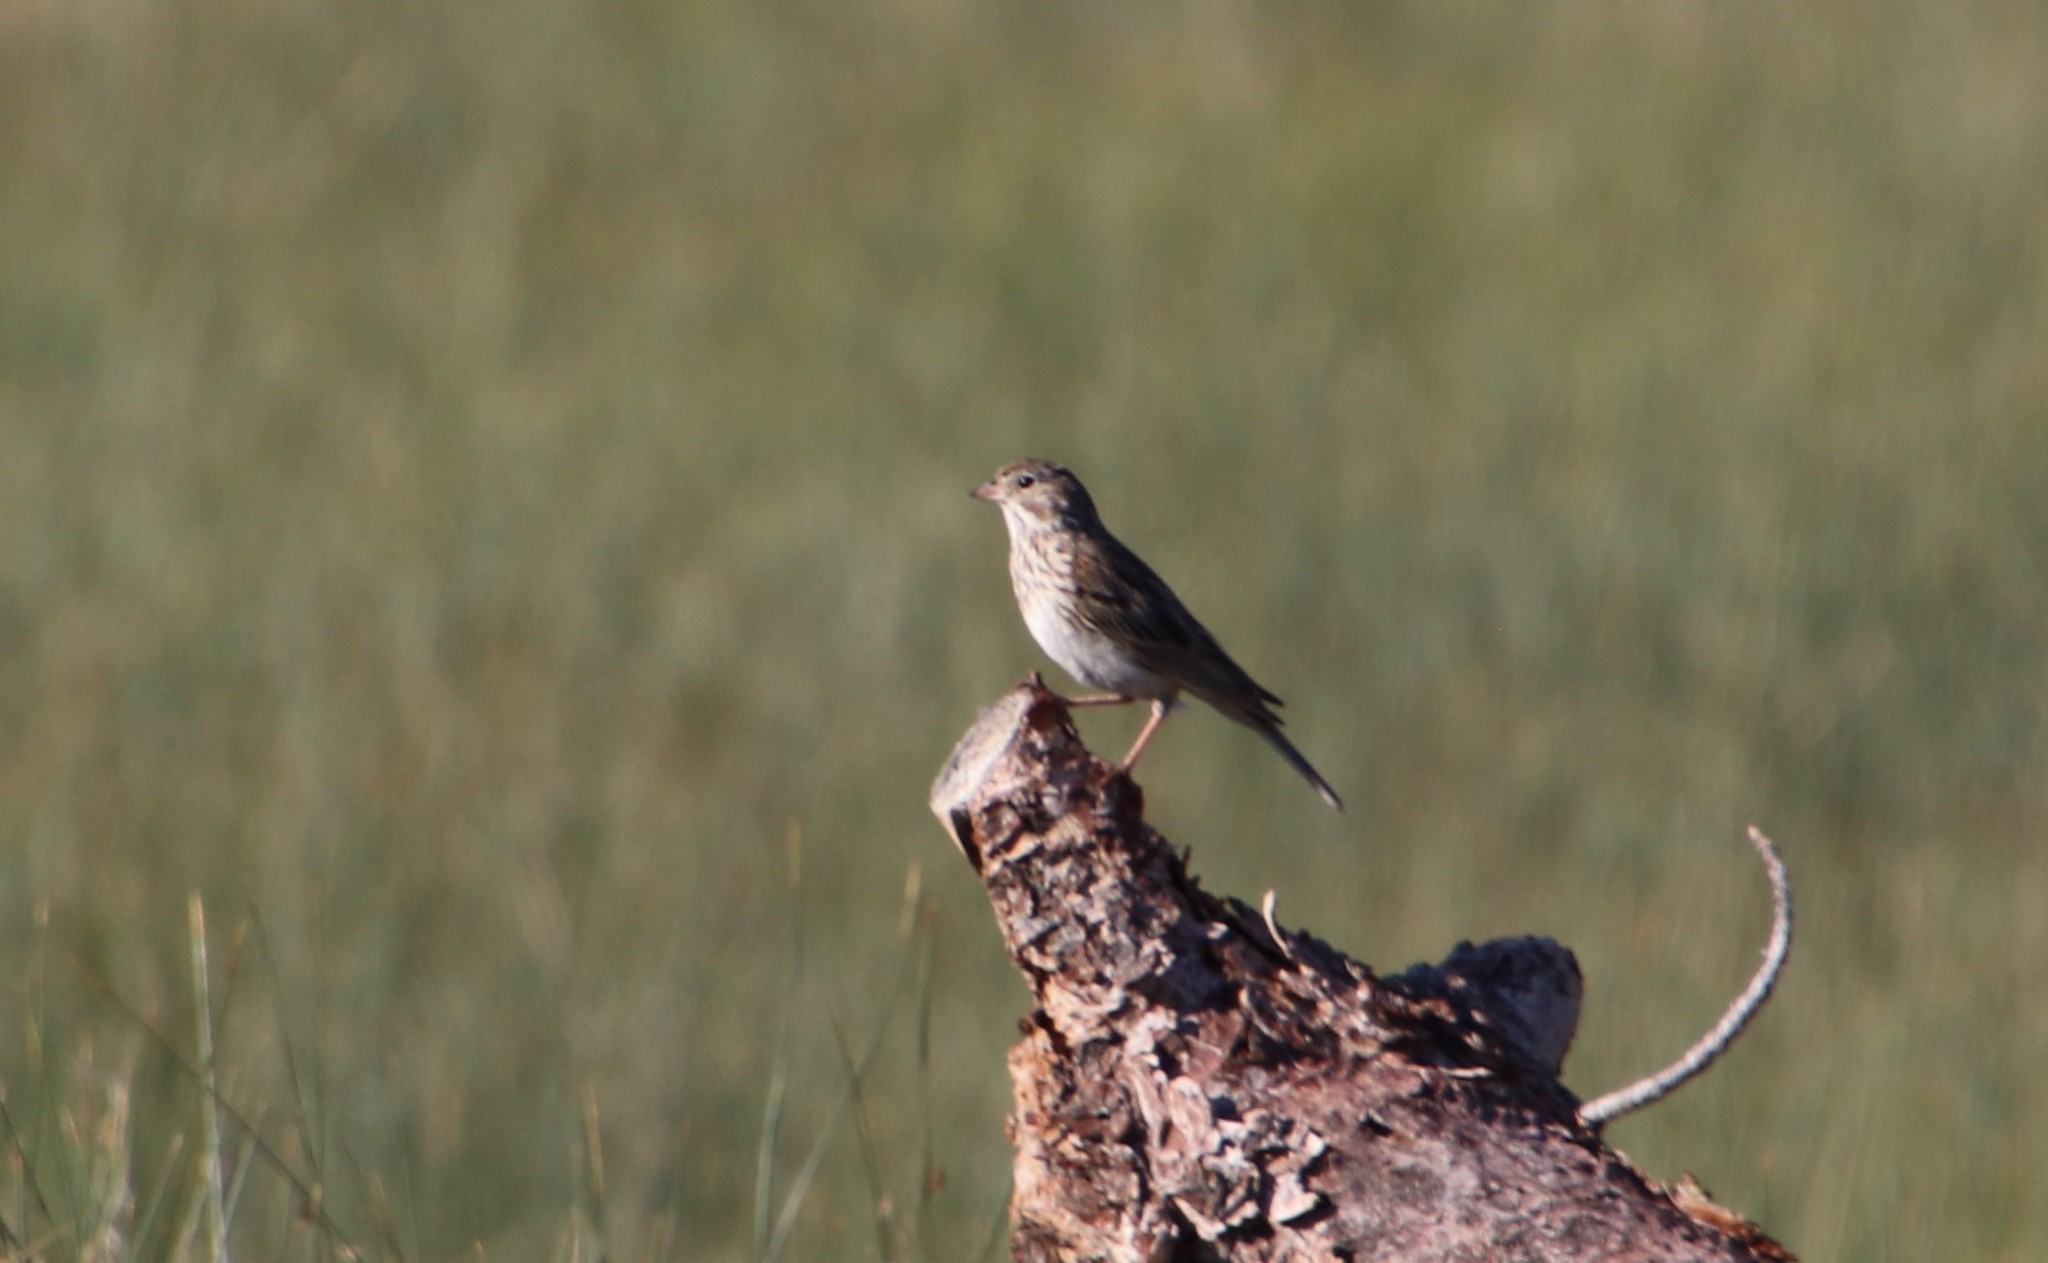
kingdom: Animalia
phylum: Chordata
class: Aves
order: Passeriformes
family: Passerellidae
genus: Pooecetes
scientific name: Pooecetes gramineus
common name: Vesper sparrow
